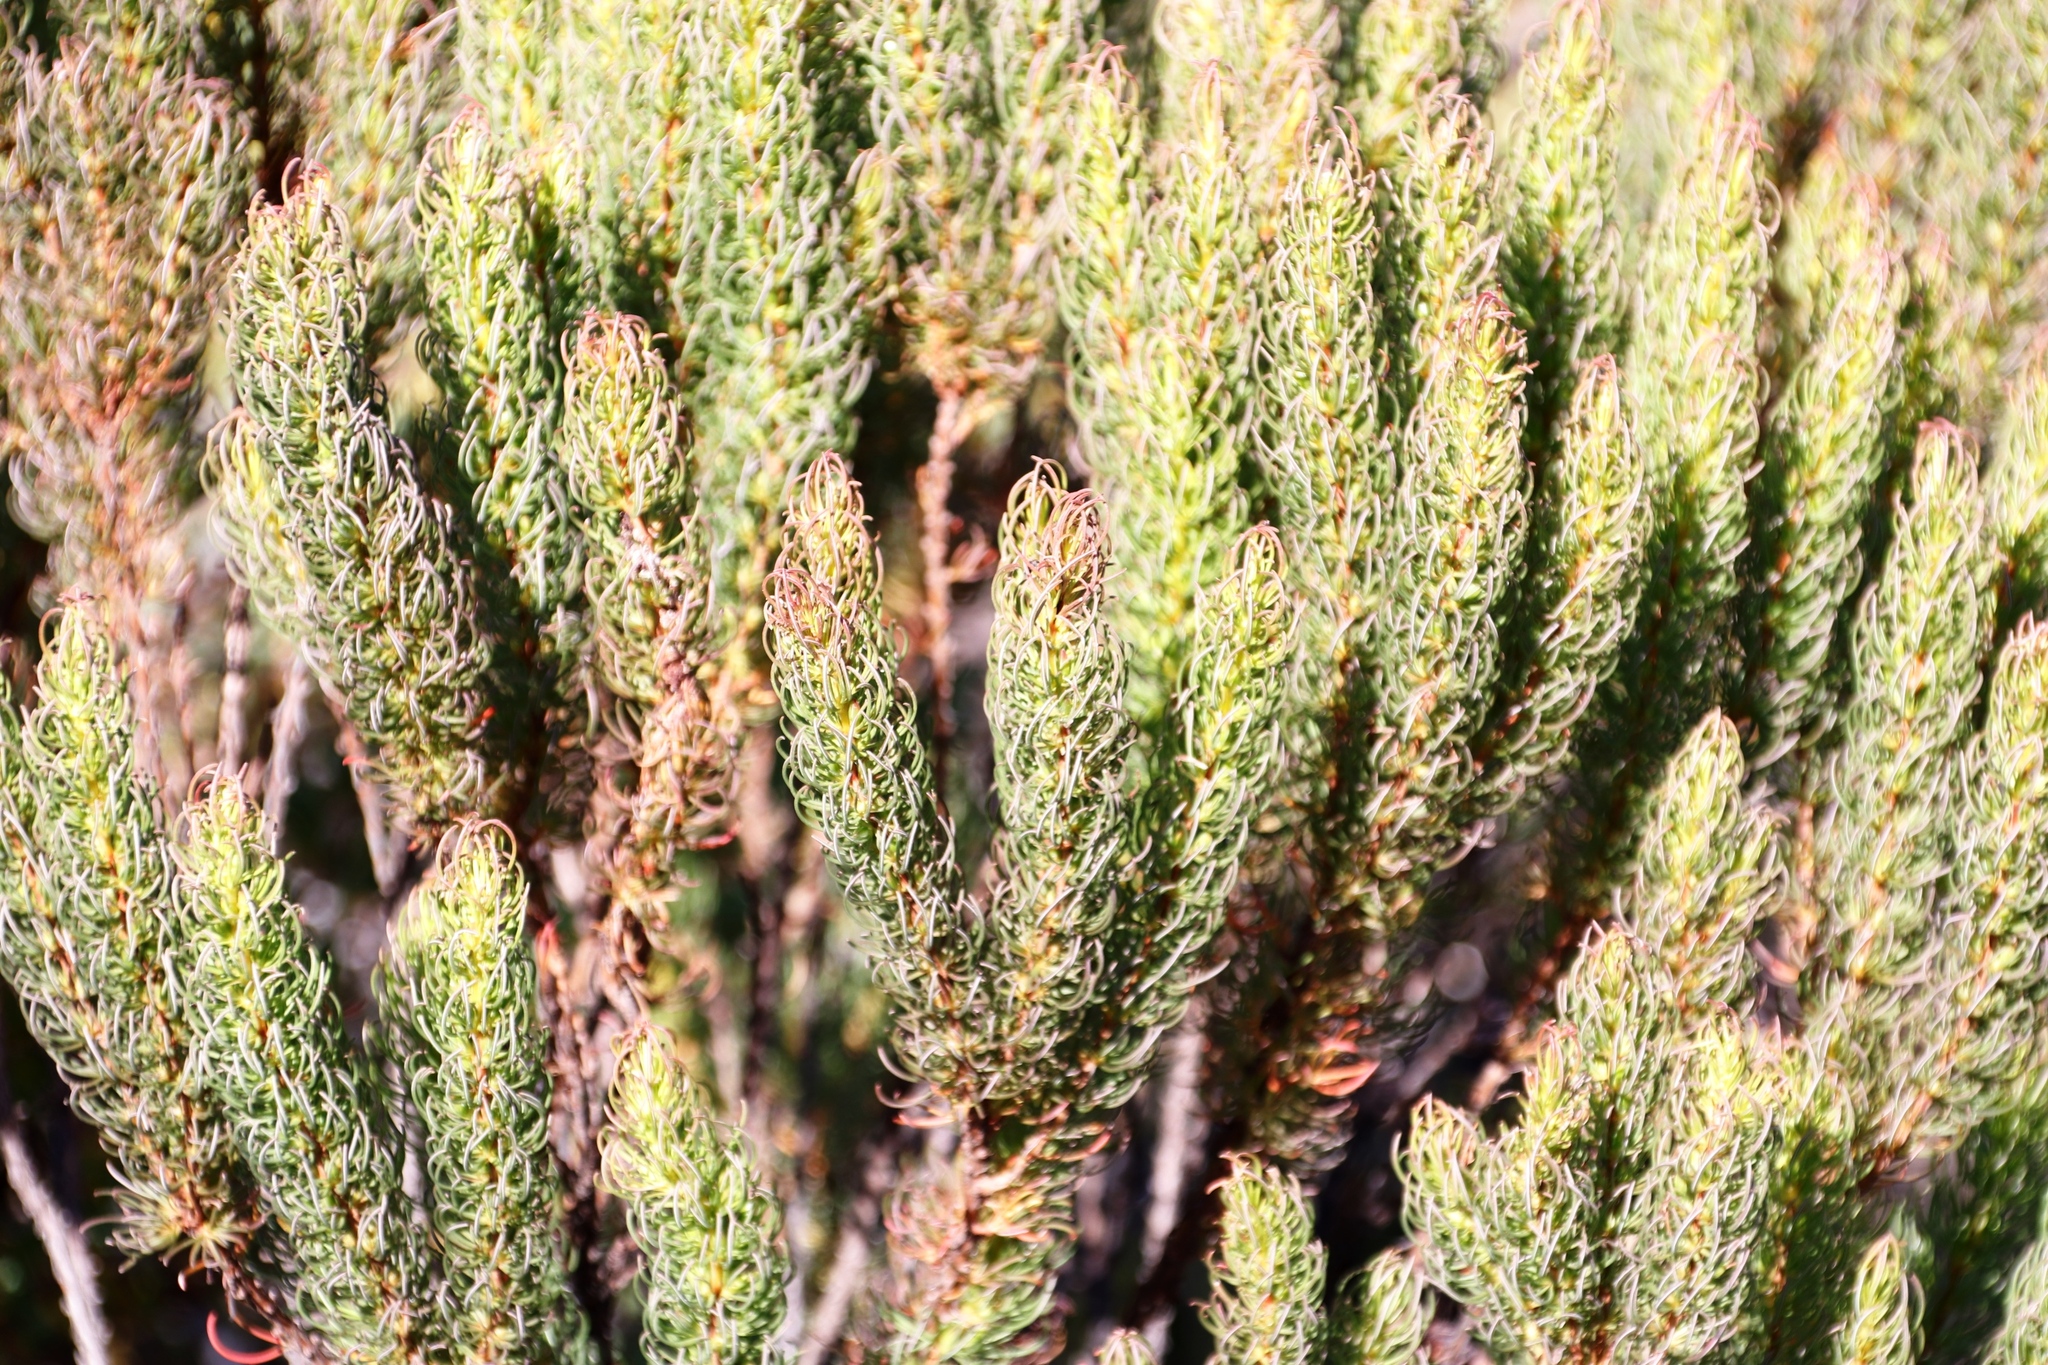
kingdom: Plantae
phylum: Tracheophyta
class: Magnoliopsida
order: Ericales
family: Ericaceae
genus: Erica
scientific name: Erica plukenetii
